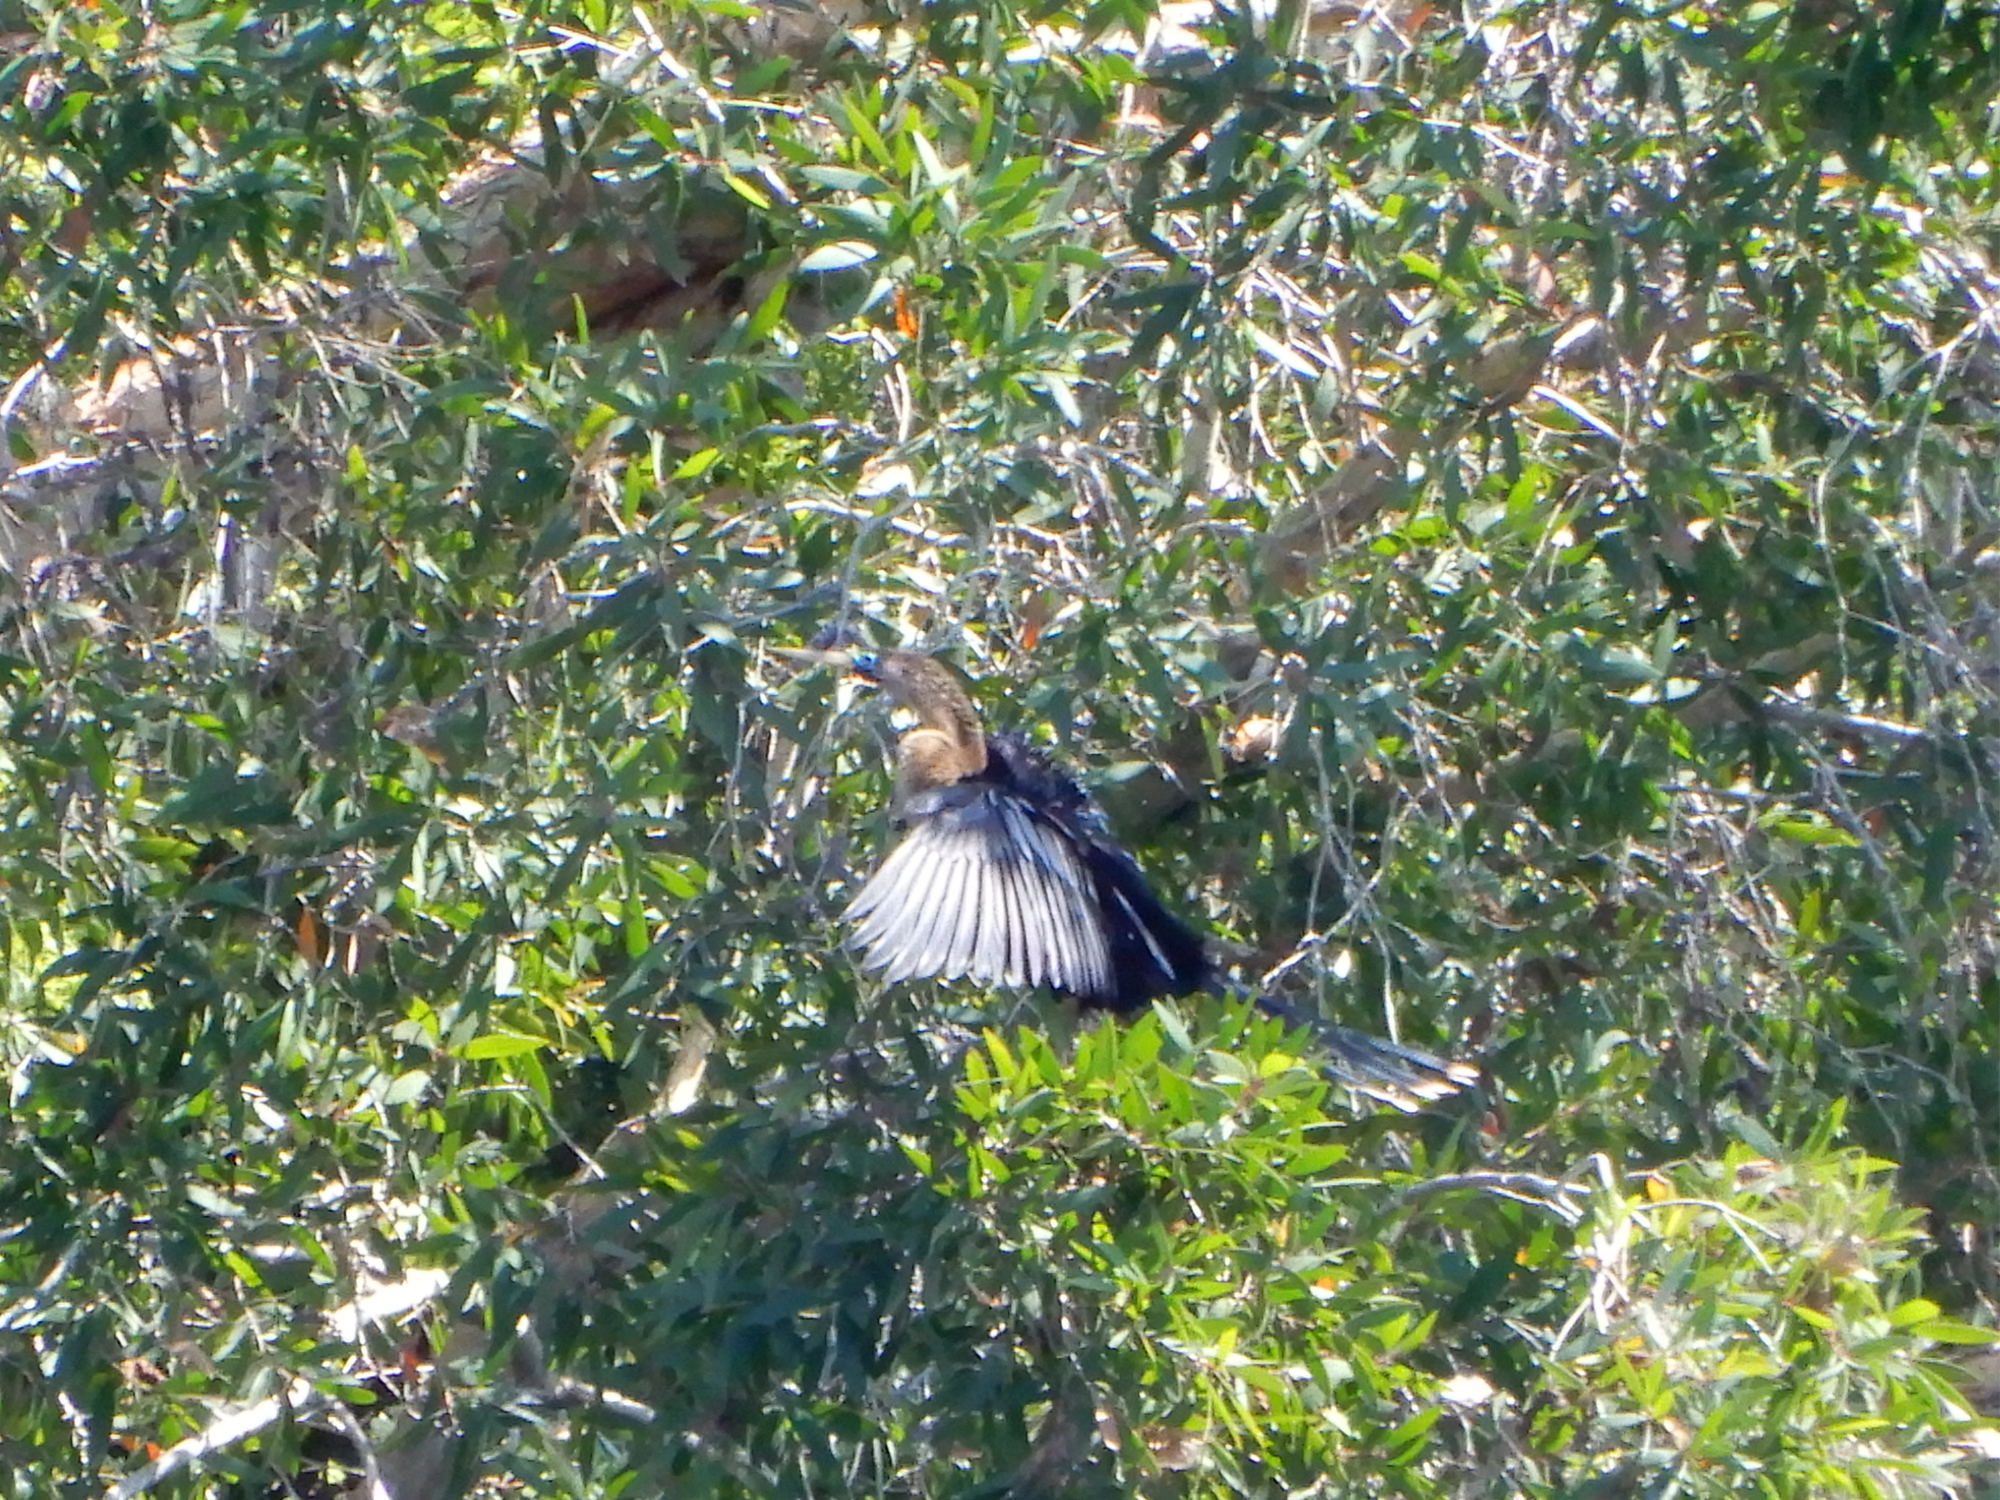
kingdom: Animalia
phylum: Chordata
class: Aves
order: Suliformes
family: Anhingidae
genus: Anhinga
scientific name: Anhinga anhinga
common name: Anhinga
